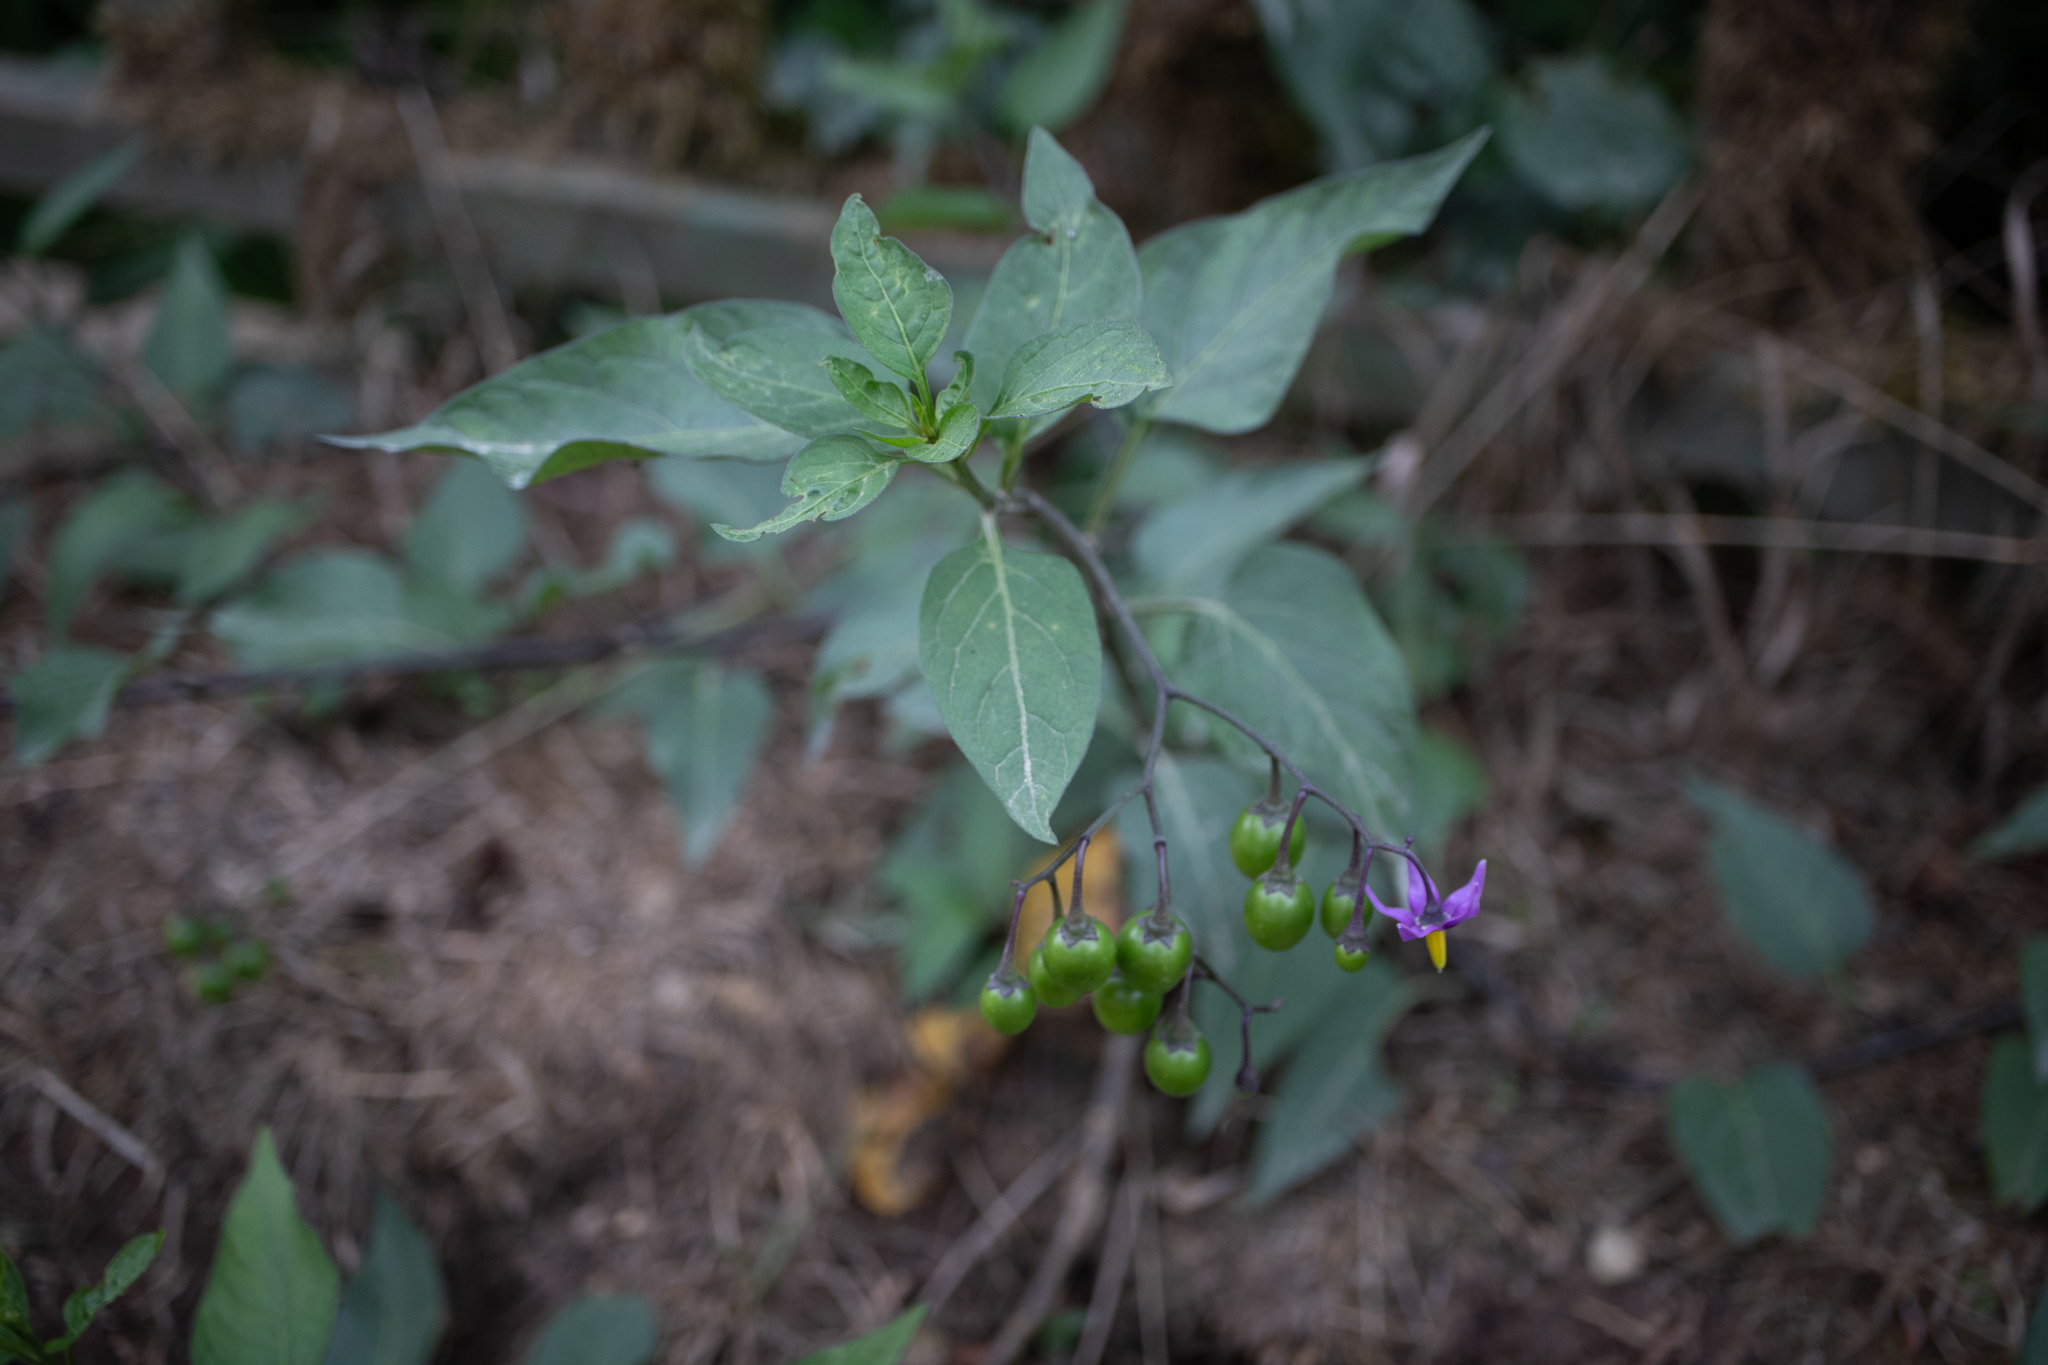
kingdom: Plantae
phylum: Tracheophyta
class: Magnoliopsida
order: Solanales
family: Solanaceae
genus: Solanum
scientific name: Solanum dulcamara
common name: Climbing nightshade
